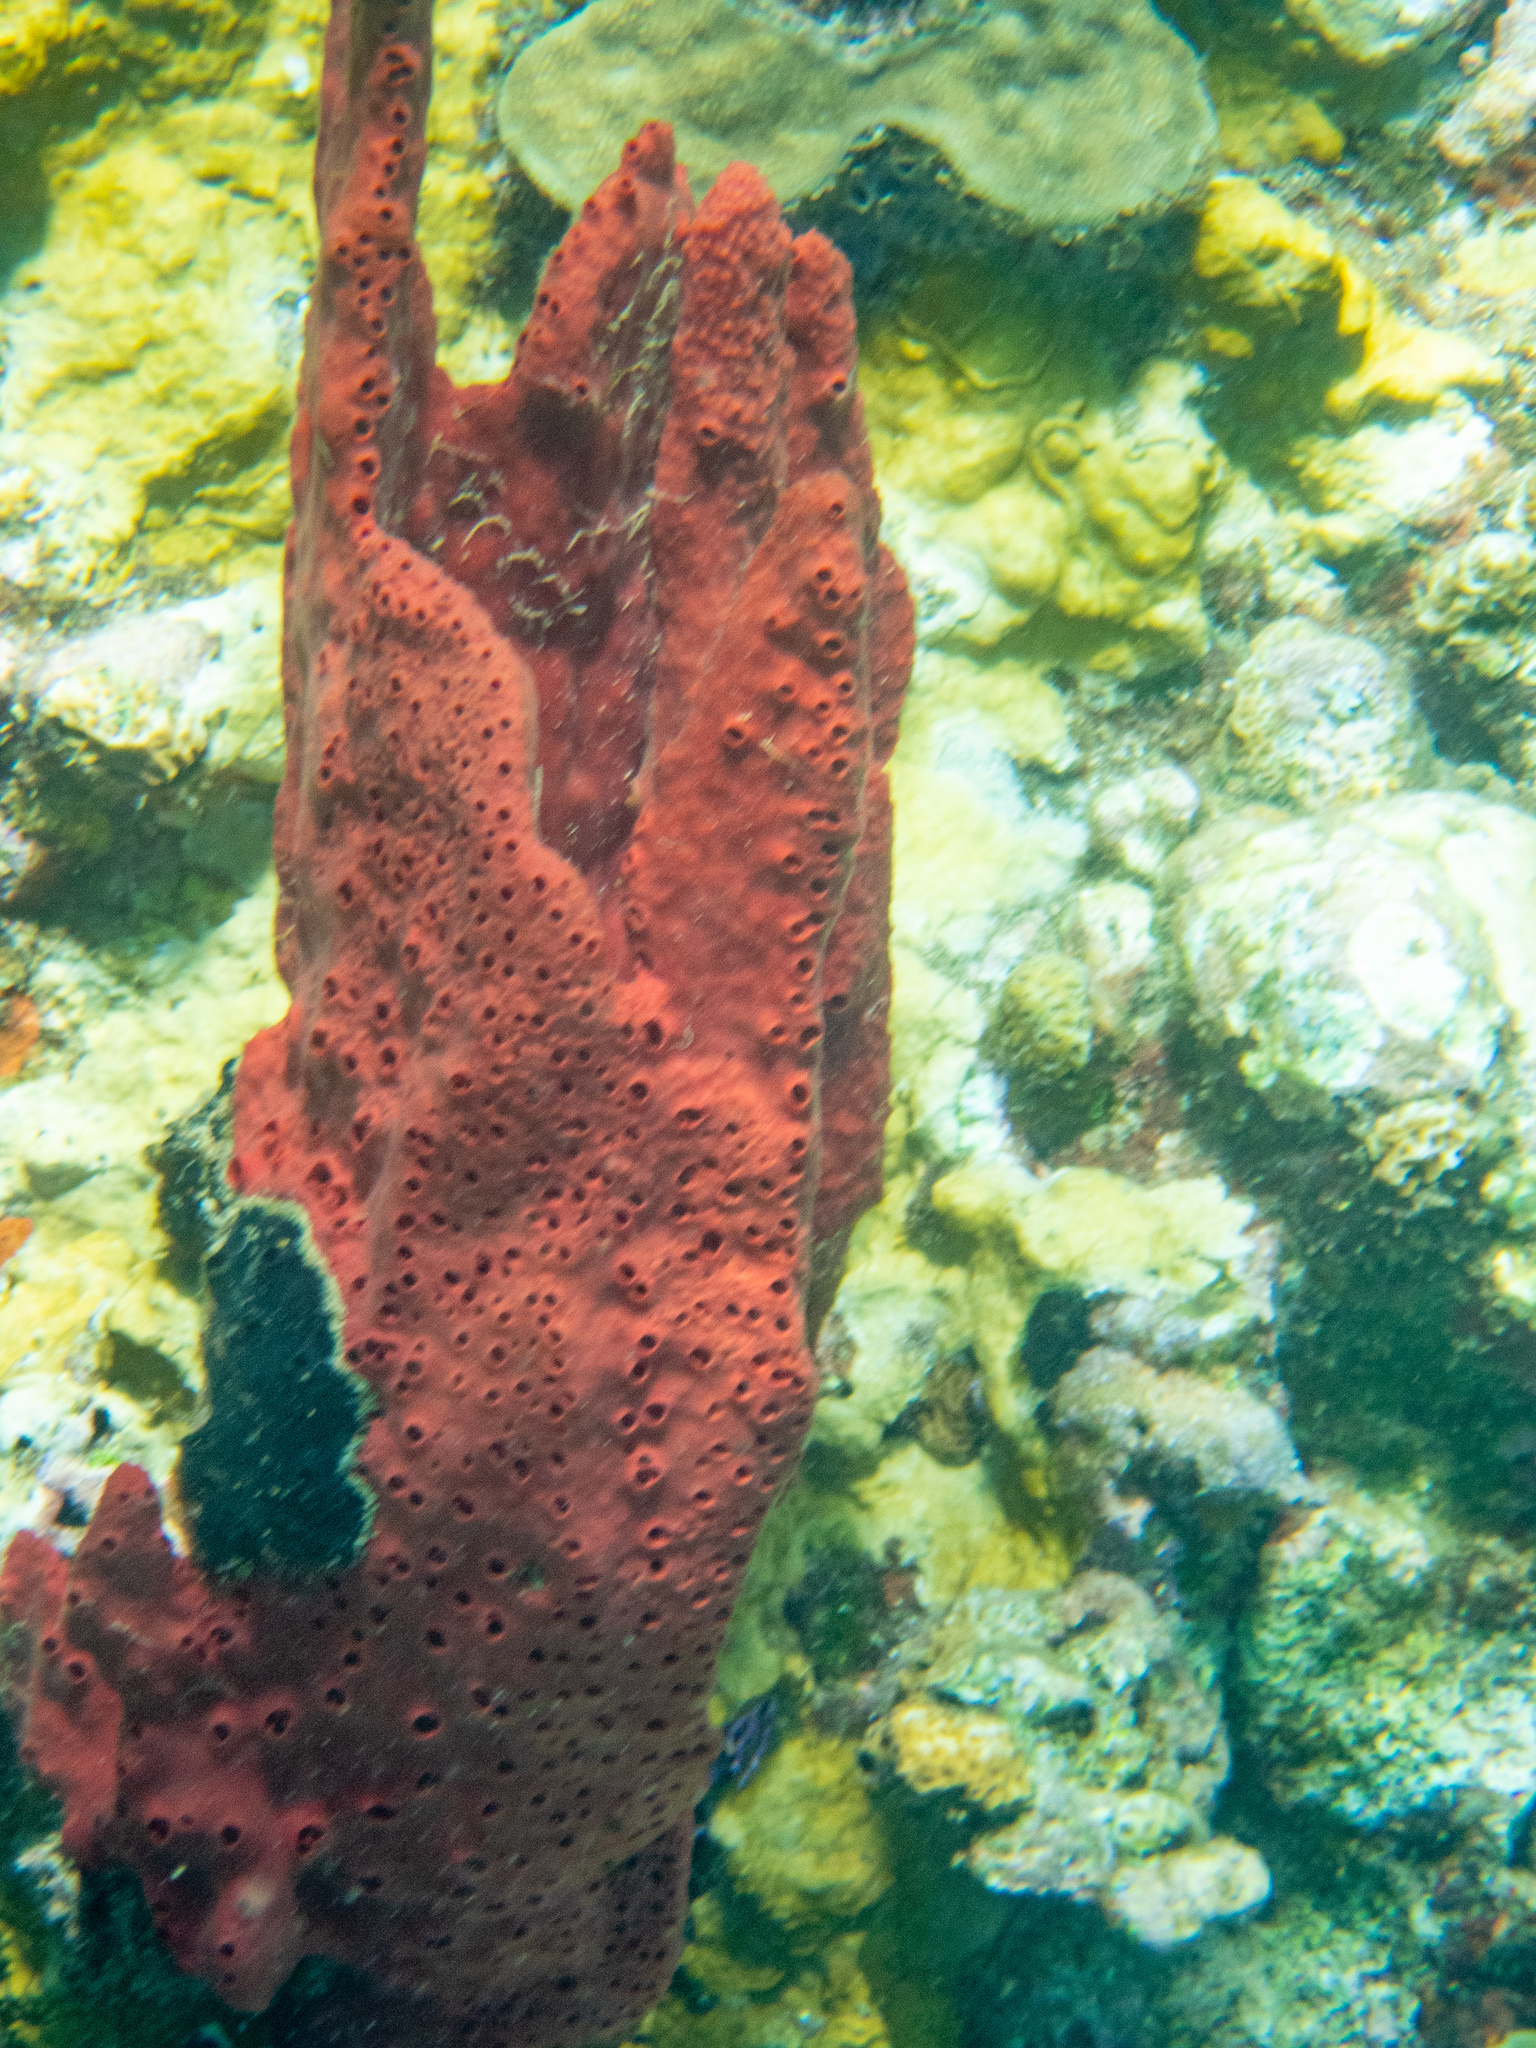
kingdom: Animalia
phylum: Porifera
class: Demospongiae
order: Haplosclerida
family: Niphatidae
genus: Amphimedon
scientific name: Amphimedon compressa
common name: Red sponge
